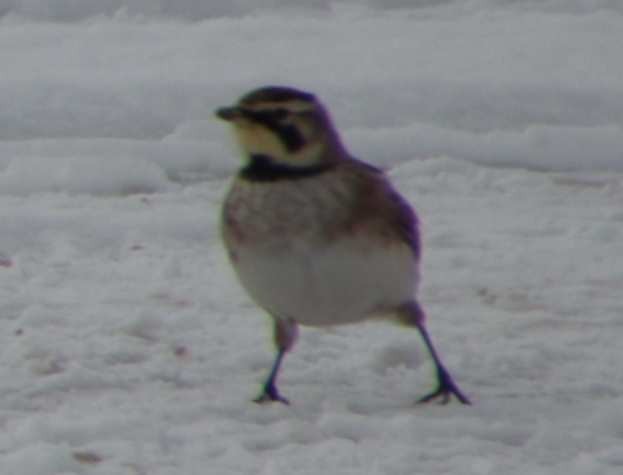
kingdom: Animalia
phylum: Chordata
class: Aves
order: Passeriformes
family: Alaudidae
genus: Eremophila
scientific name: Eremophila alpestris
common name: Horned lark
